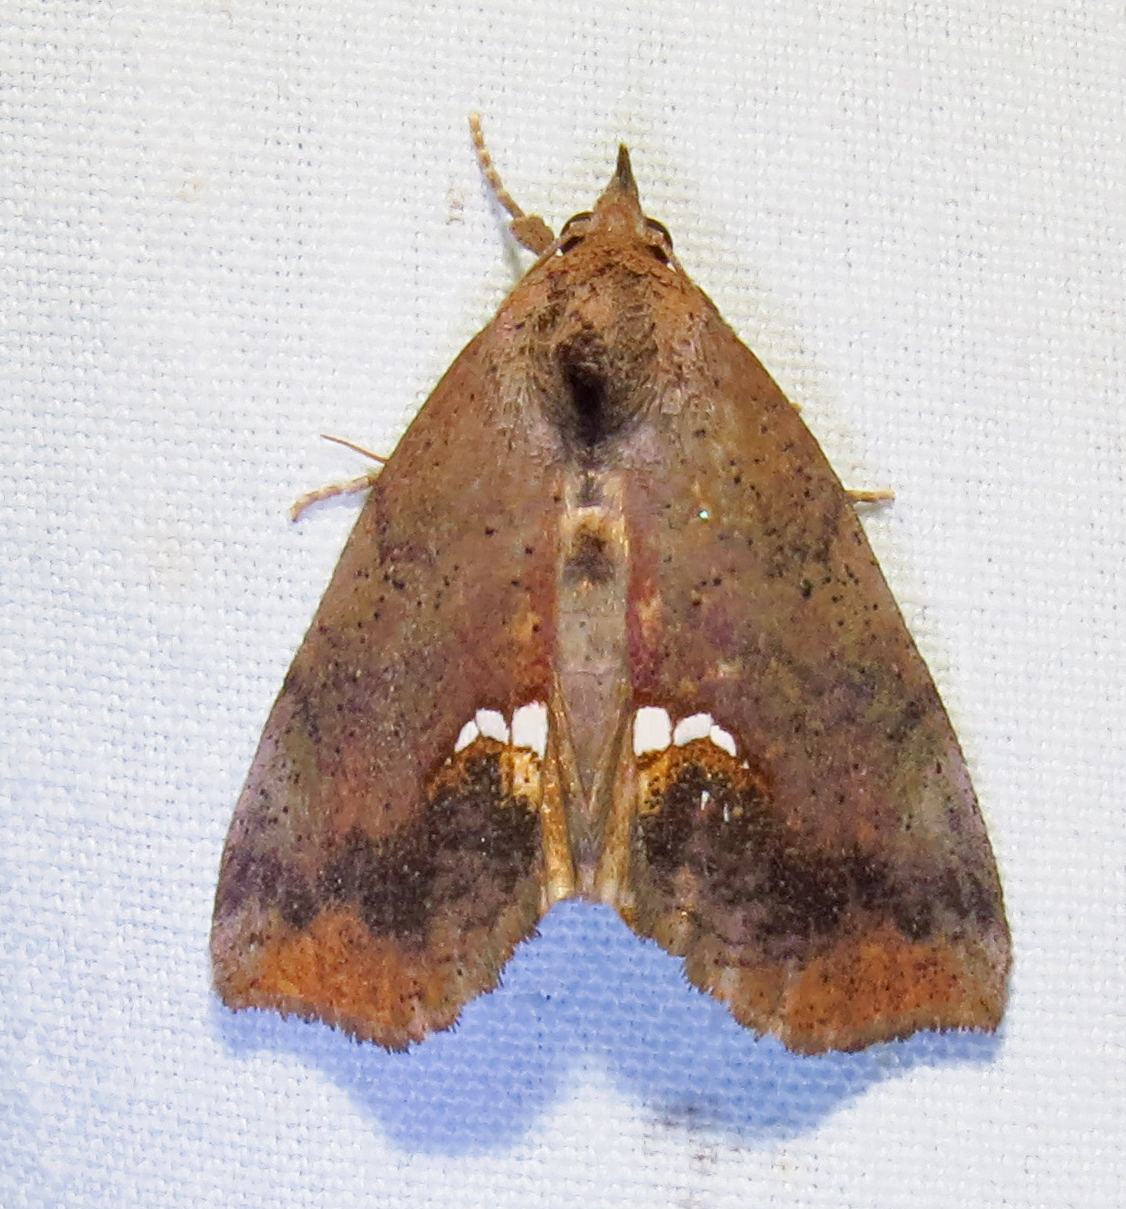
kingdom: Animalia
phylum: Arthropoda
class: Insecta
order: Lepidoptera
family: Erebidae
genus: Hypsoropha
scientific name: Hypsoropha hormos
